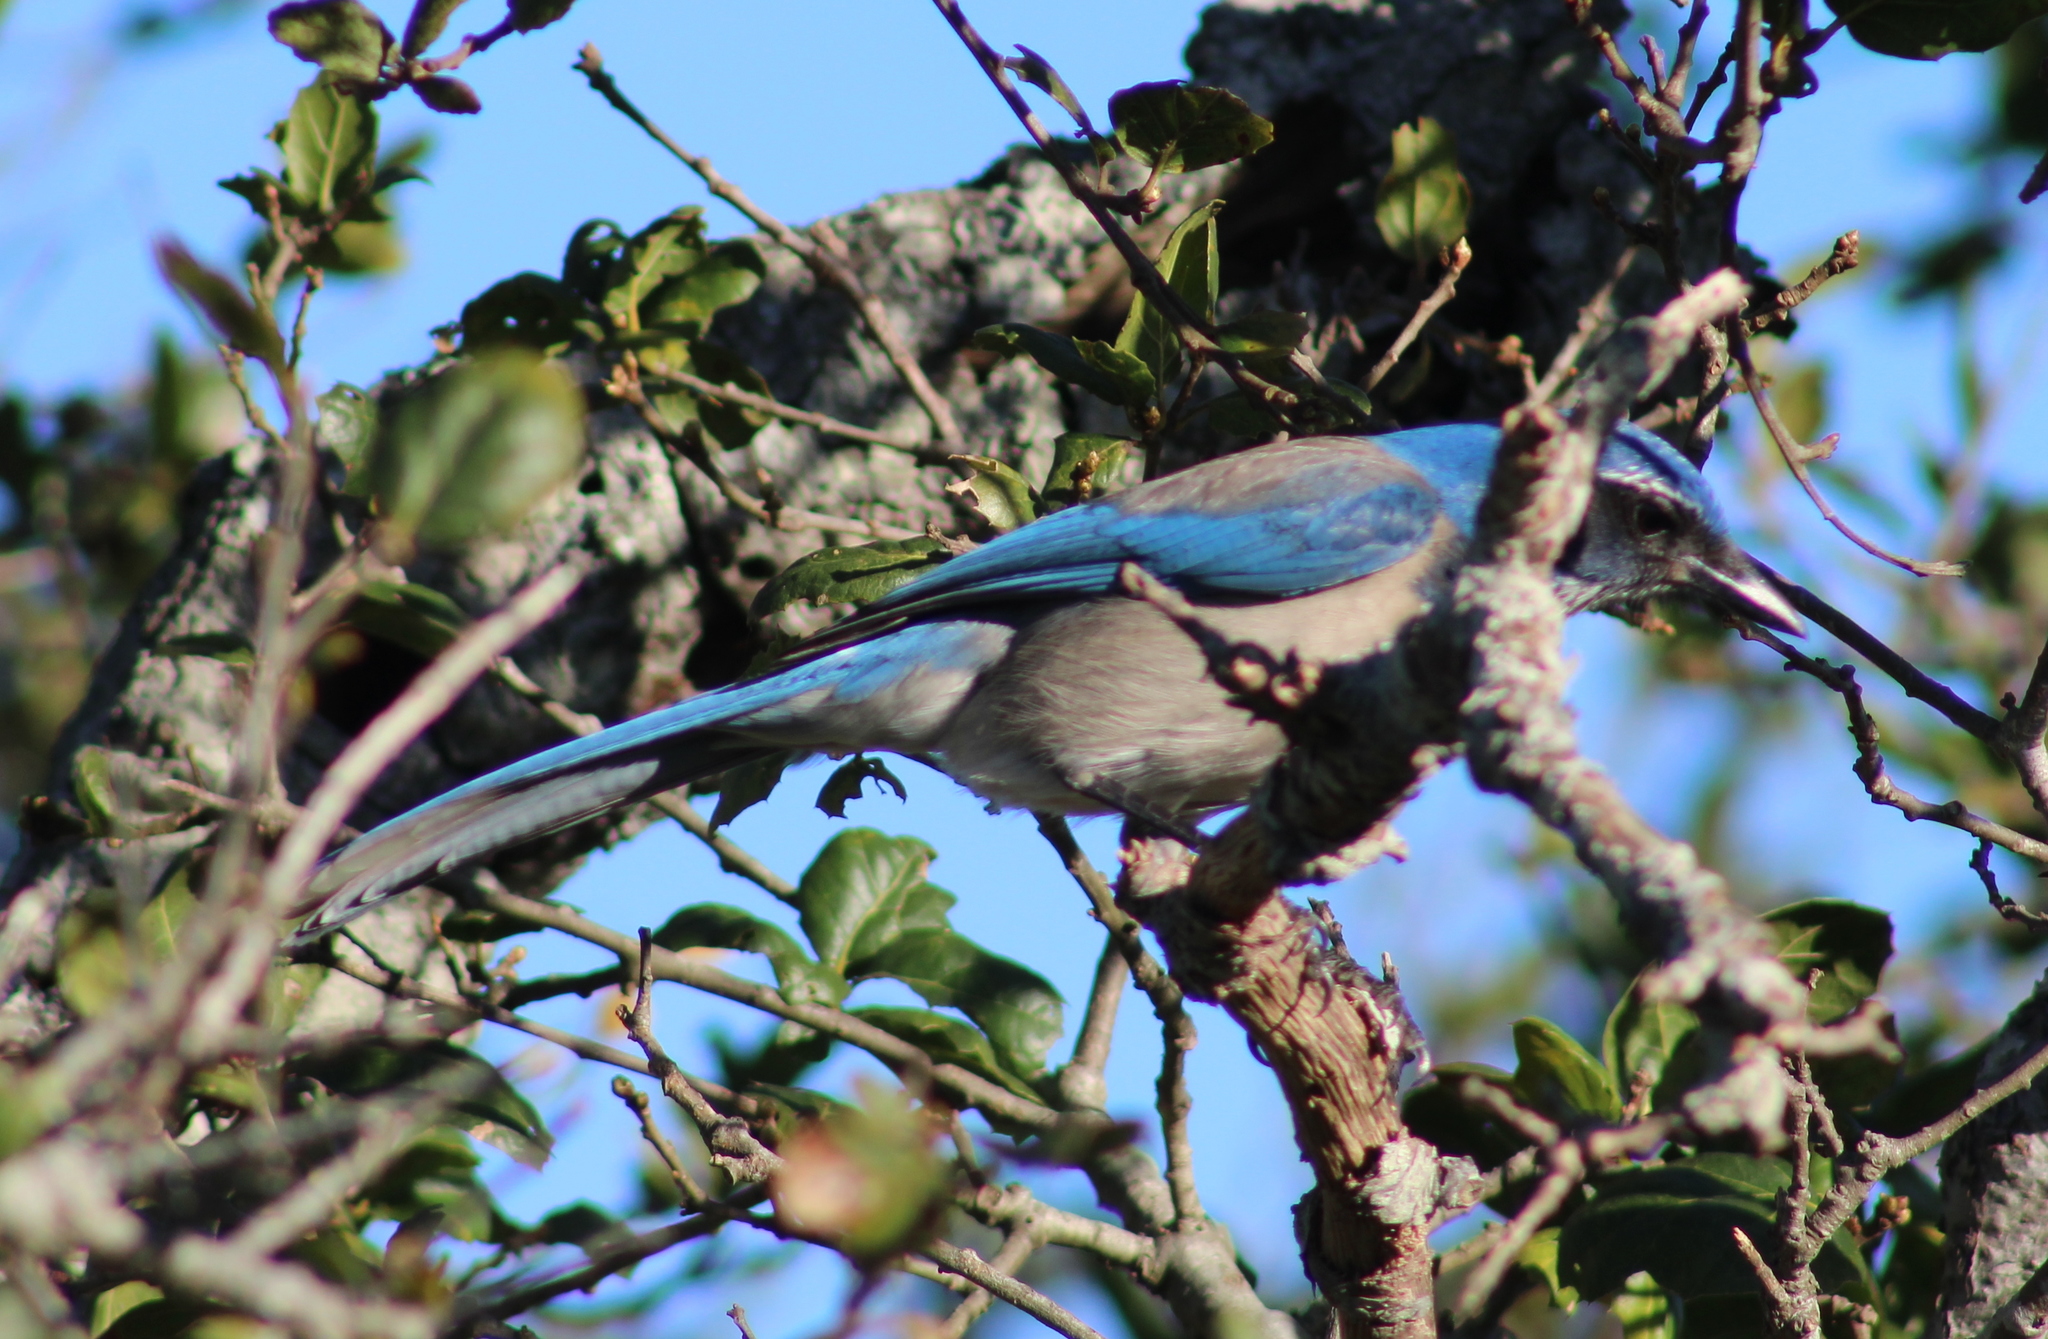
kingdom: Animalia
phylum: Chordata
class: Aves
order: Passeriformes
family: Corvidae
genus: Aphelocoma
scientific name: Aphelocoma californica
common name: California scrub-jay
